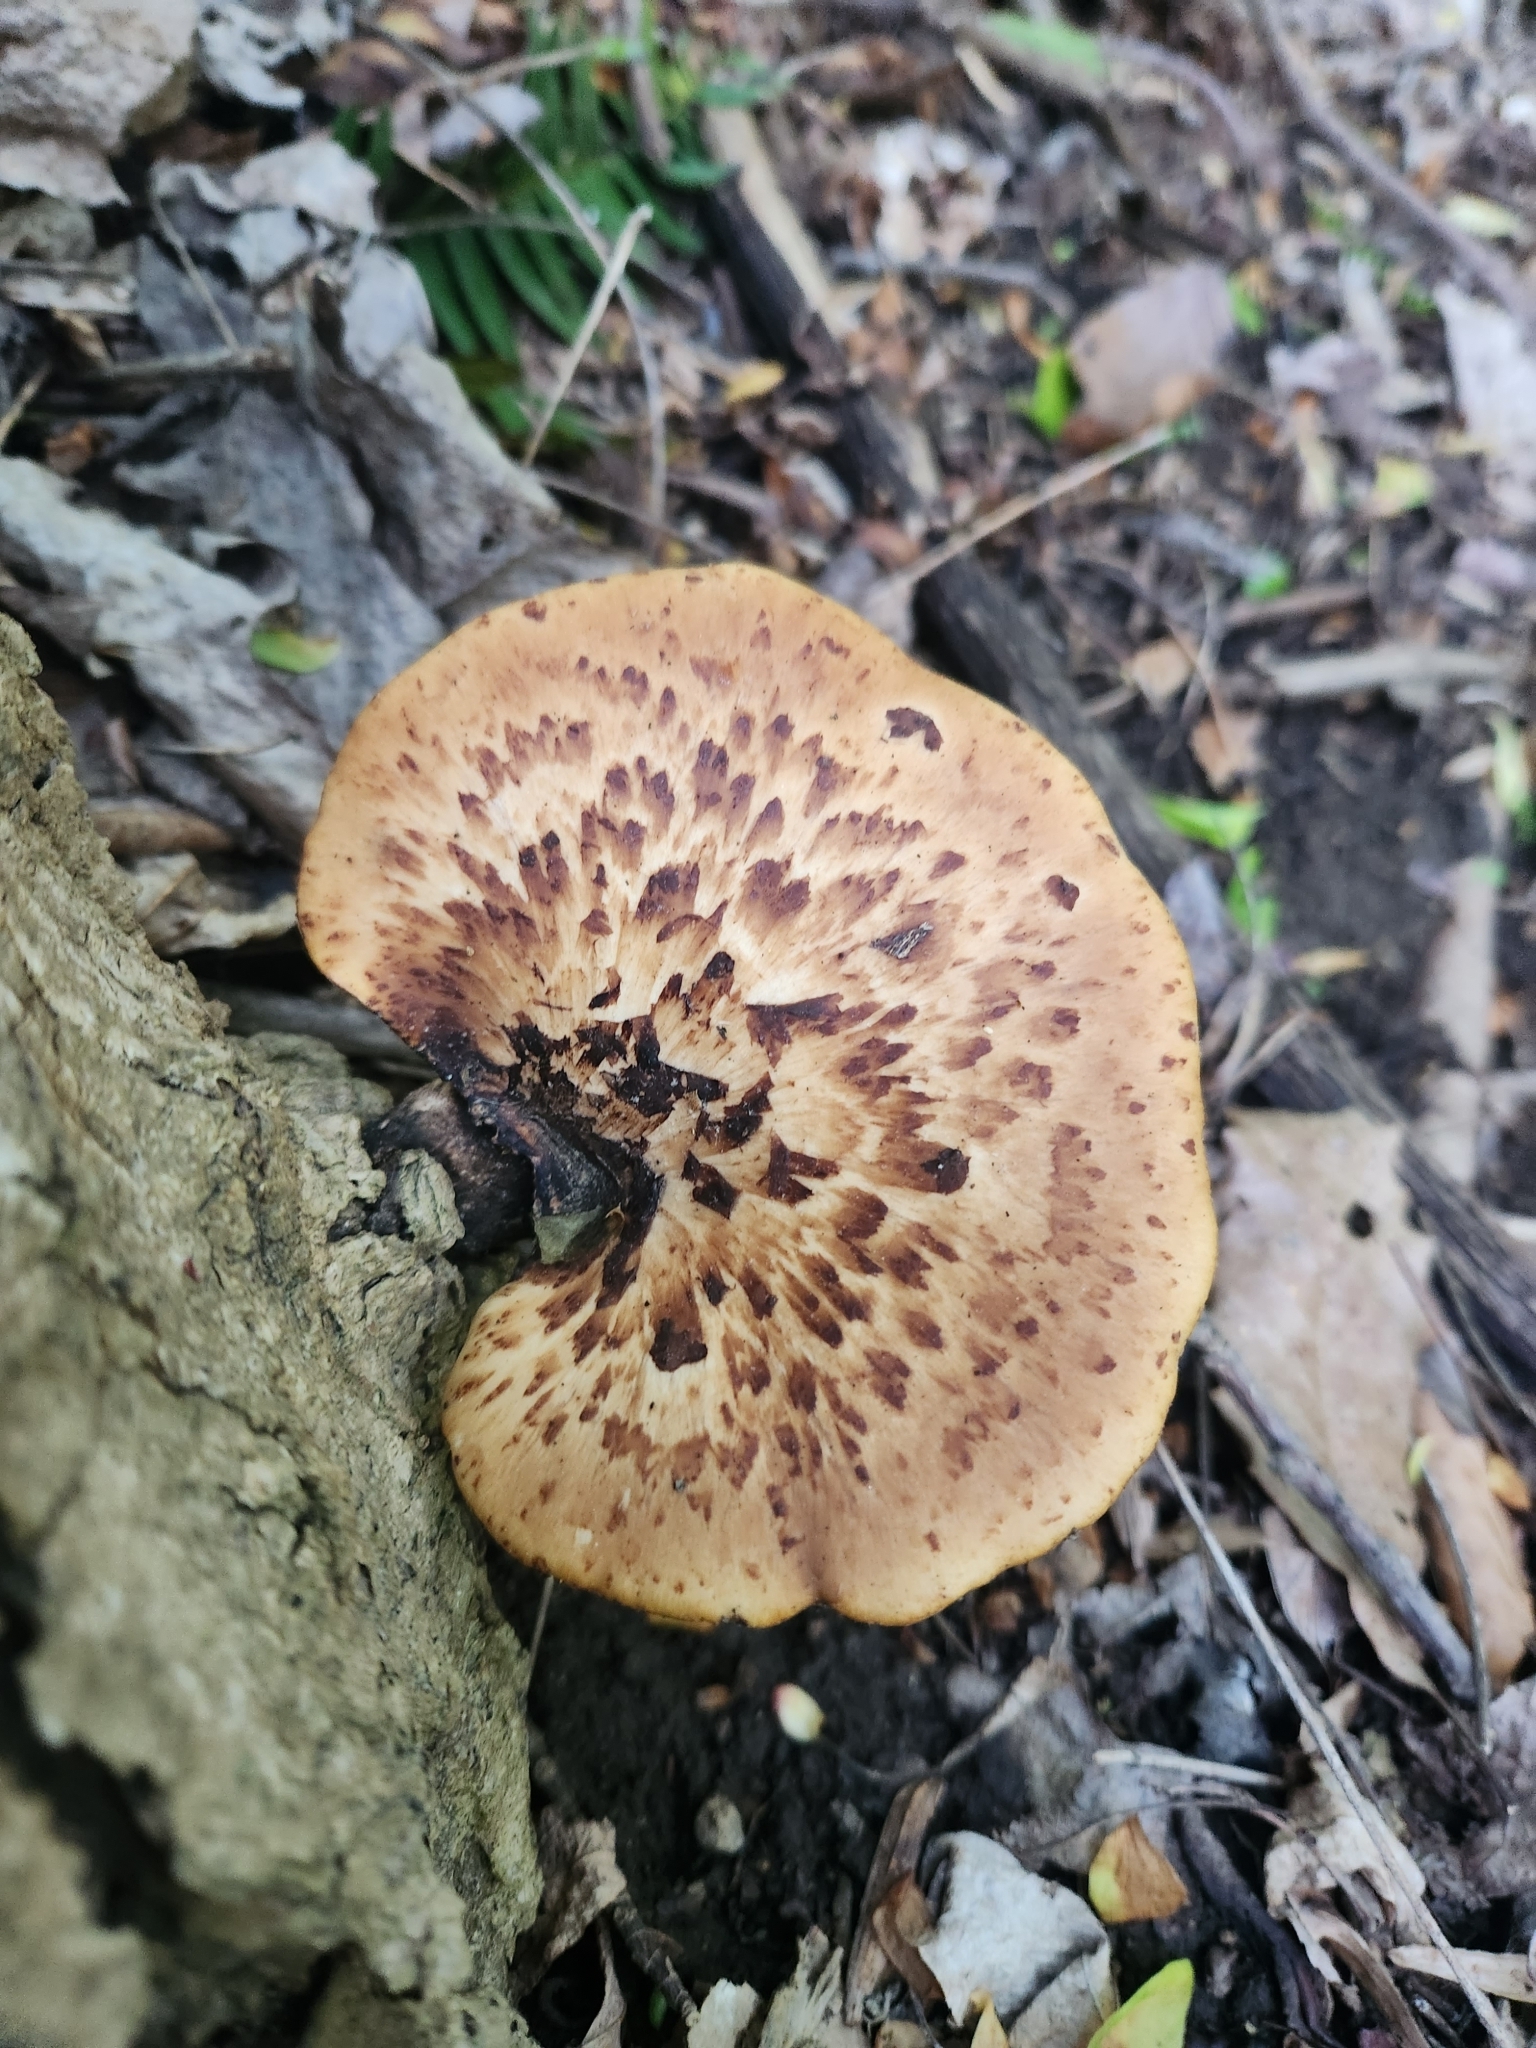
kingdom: Fungi
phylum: Basidiomycota
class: Agaricomycetes
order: Polyporales
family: Polyporaceae
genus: Cerioporus
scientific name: Cerioporus squamosus
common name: Dryad's saddle
